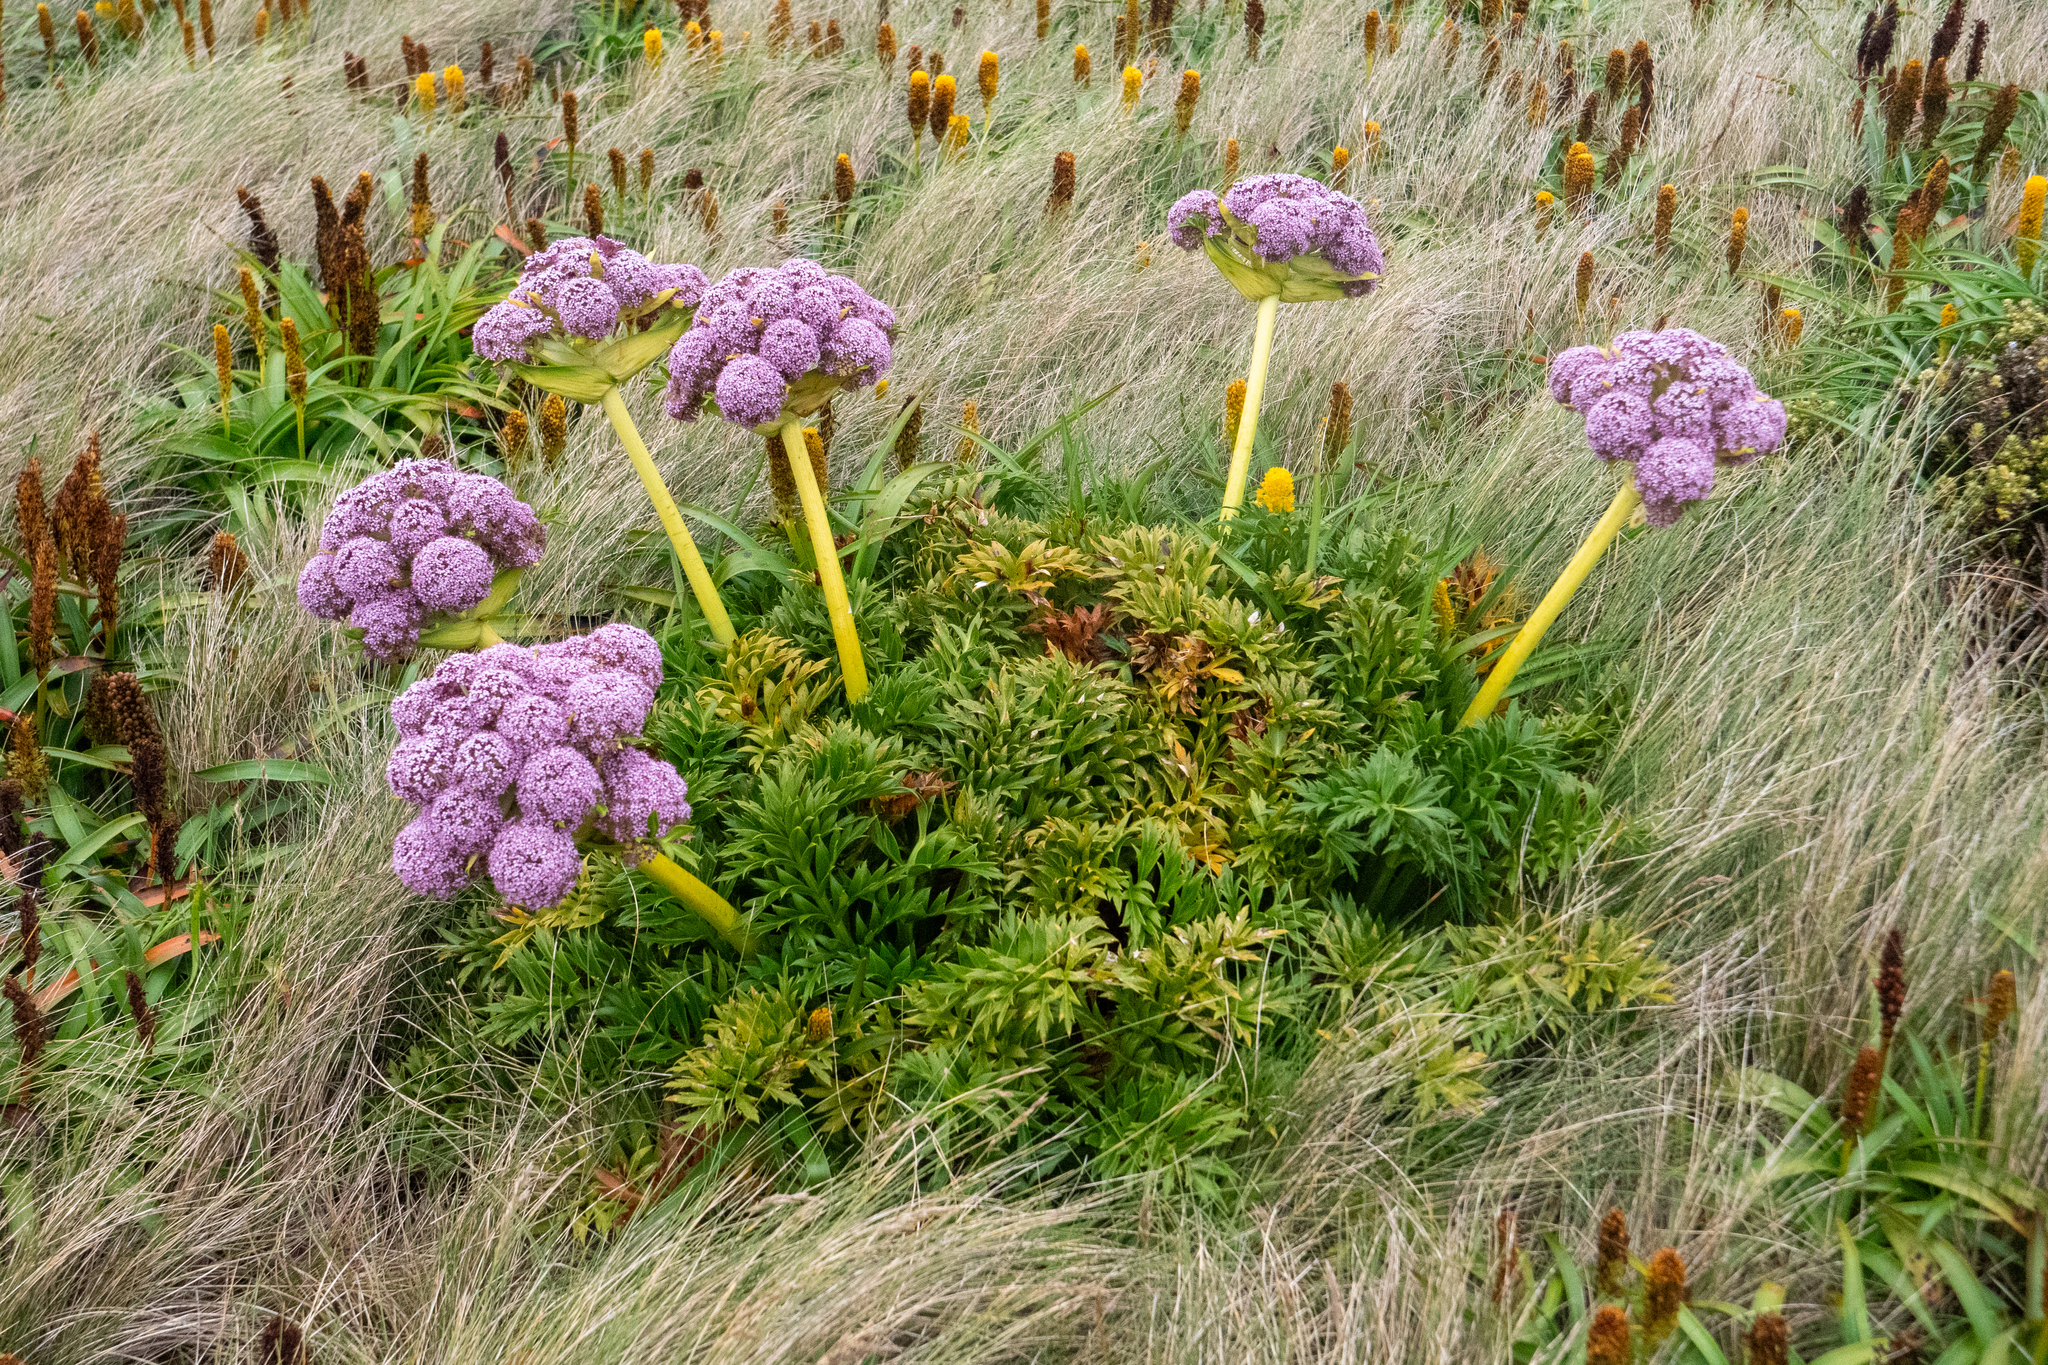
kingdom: Plantae
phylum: Tracheophyta
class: Magnoliopsida
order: Apiales
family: Apiaceae
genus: Anisotome
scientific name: Anisotome latifolia
